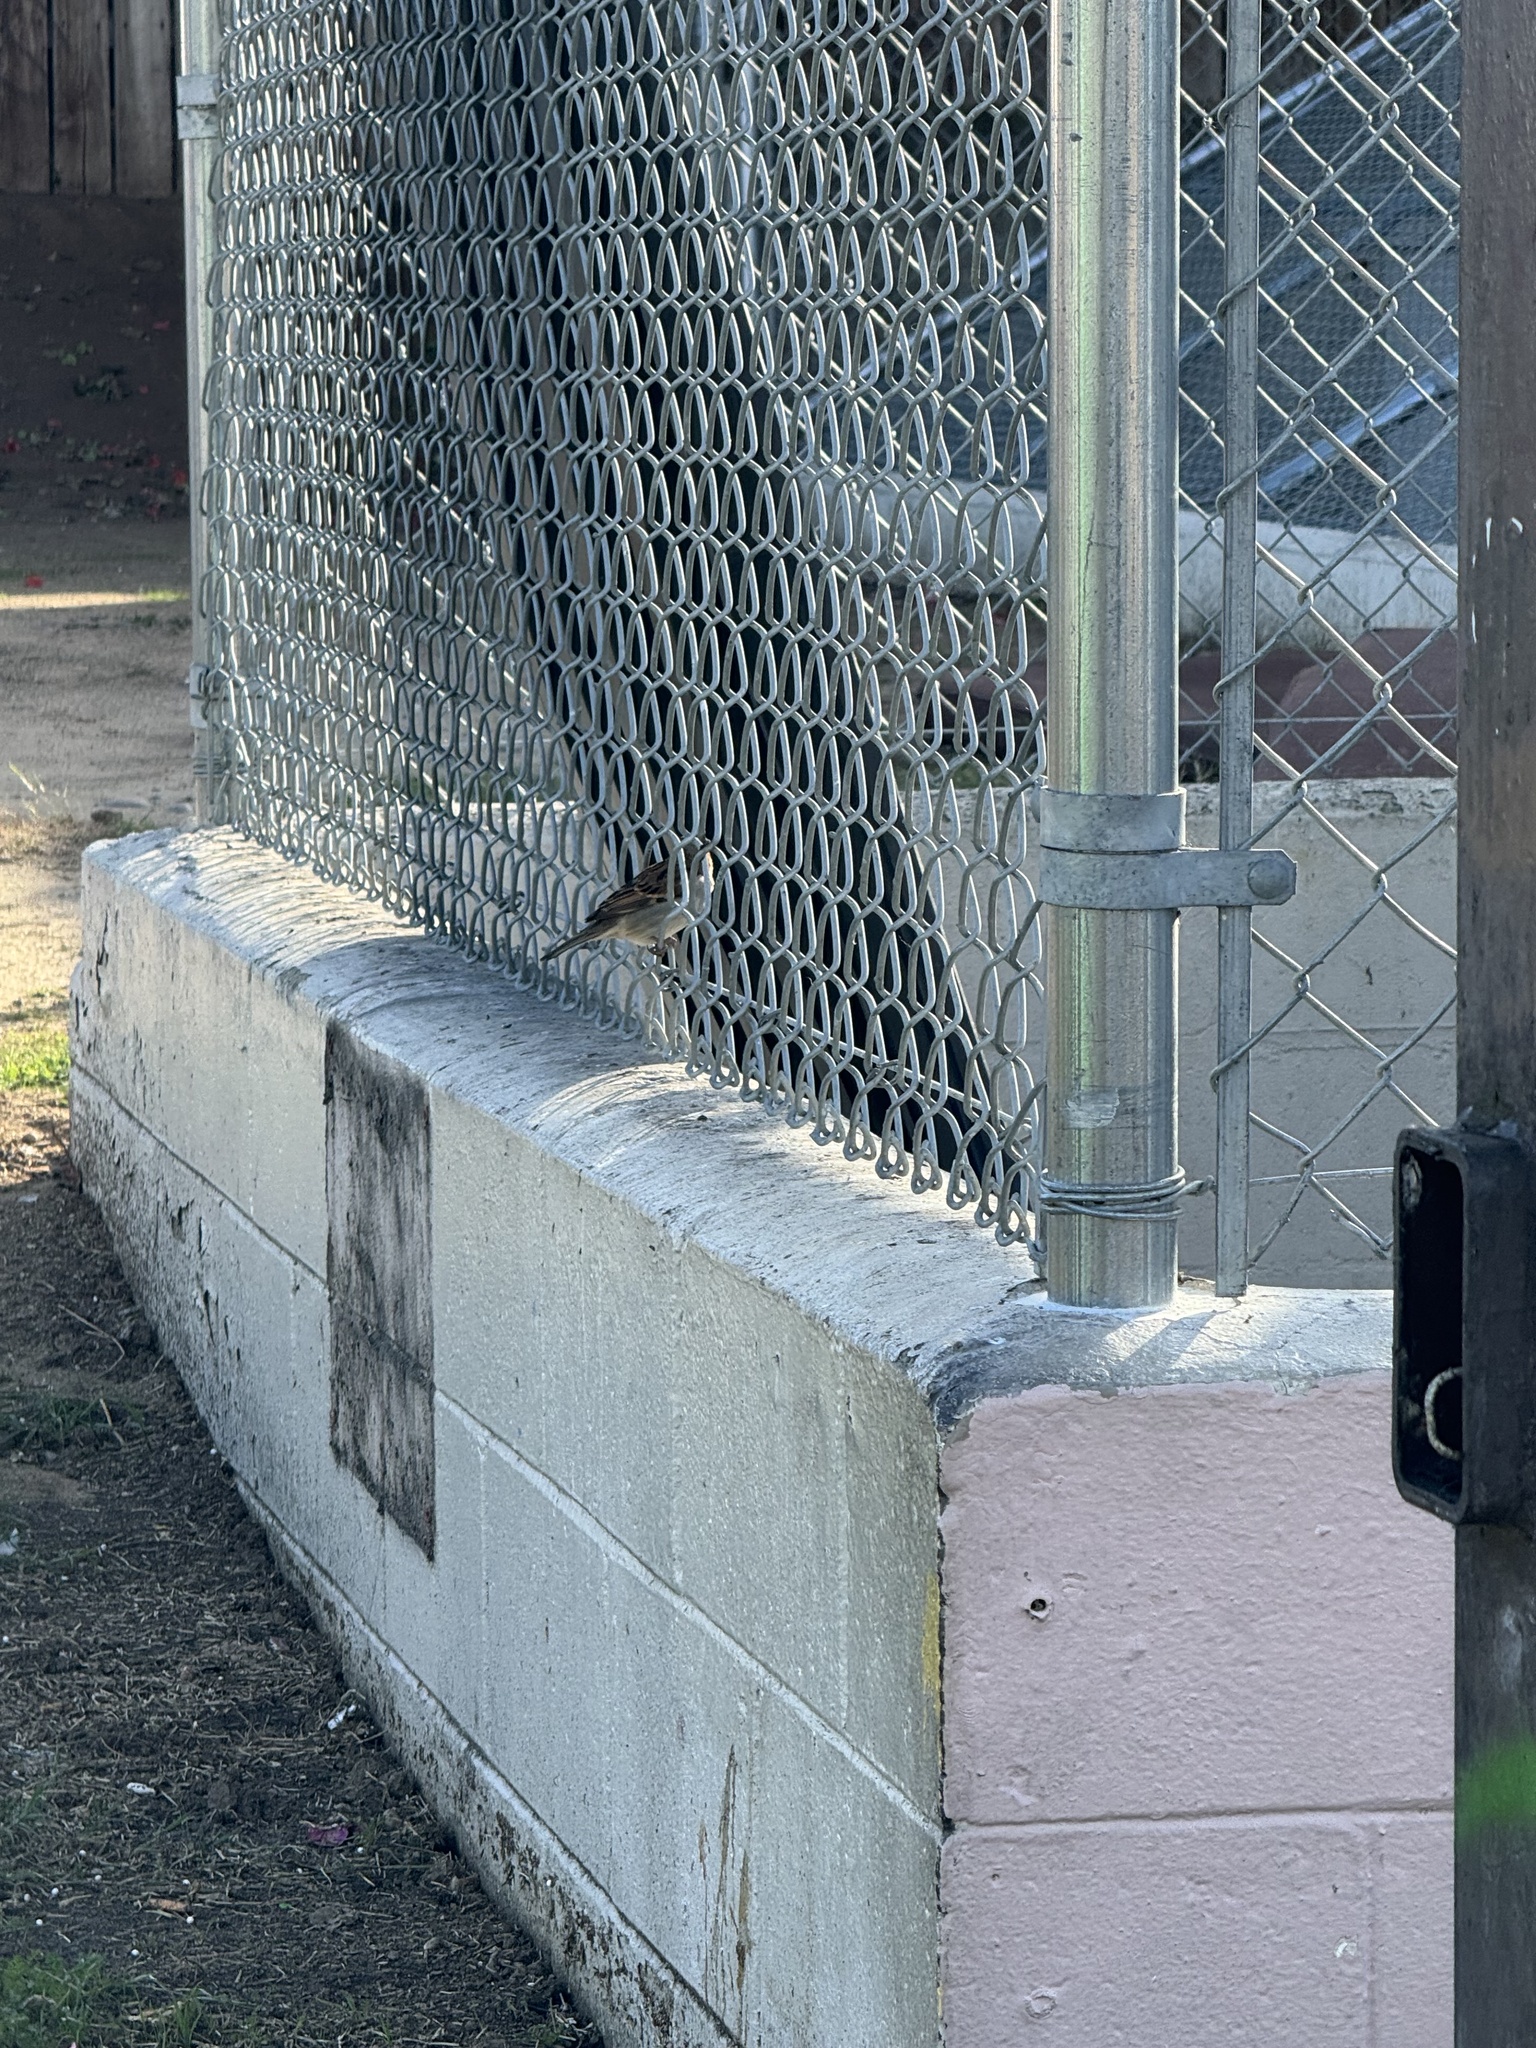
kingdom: Animalia
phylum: Chordata
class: Aves
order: Passeriformes
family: Passeridae
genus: Passer
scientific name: Passer domesticus
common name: House sparrow
